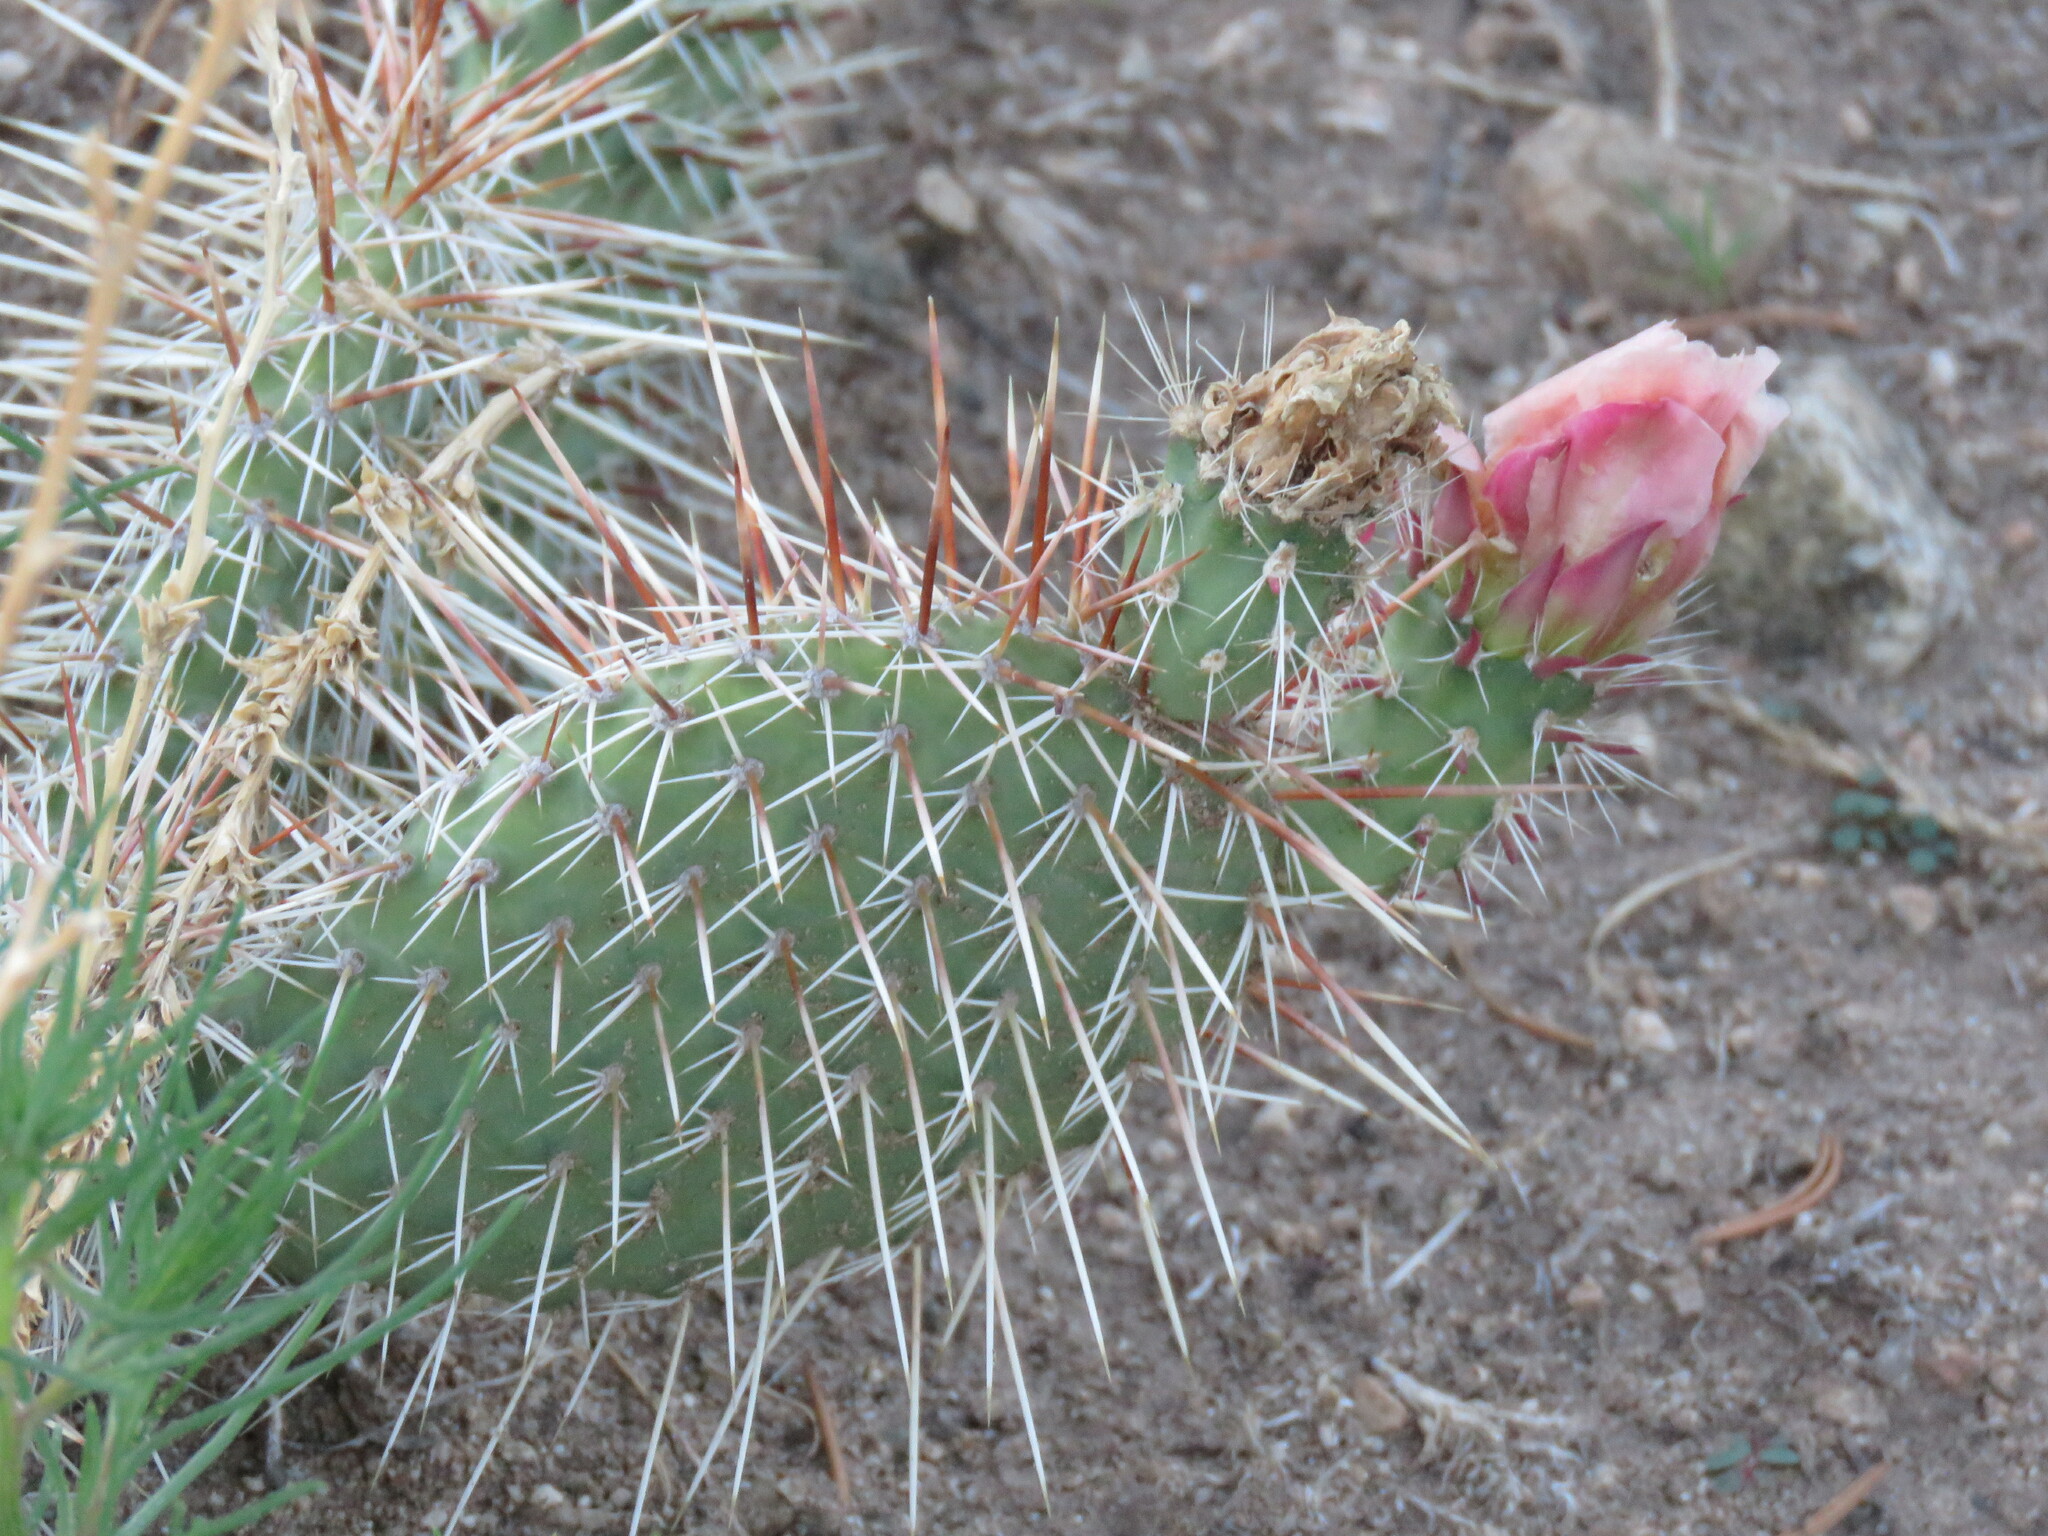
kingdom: Plantae
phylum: Tracheophyta
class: Magnoliopsida
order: Caryophyllales
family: Cactaceae
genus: Opuntia
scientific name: Opuntia polyacantha
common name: Plains prickly-pear
